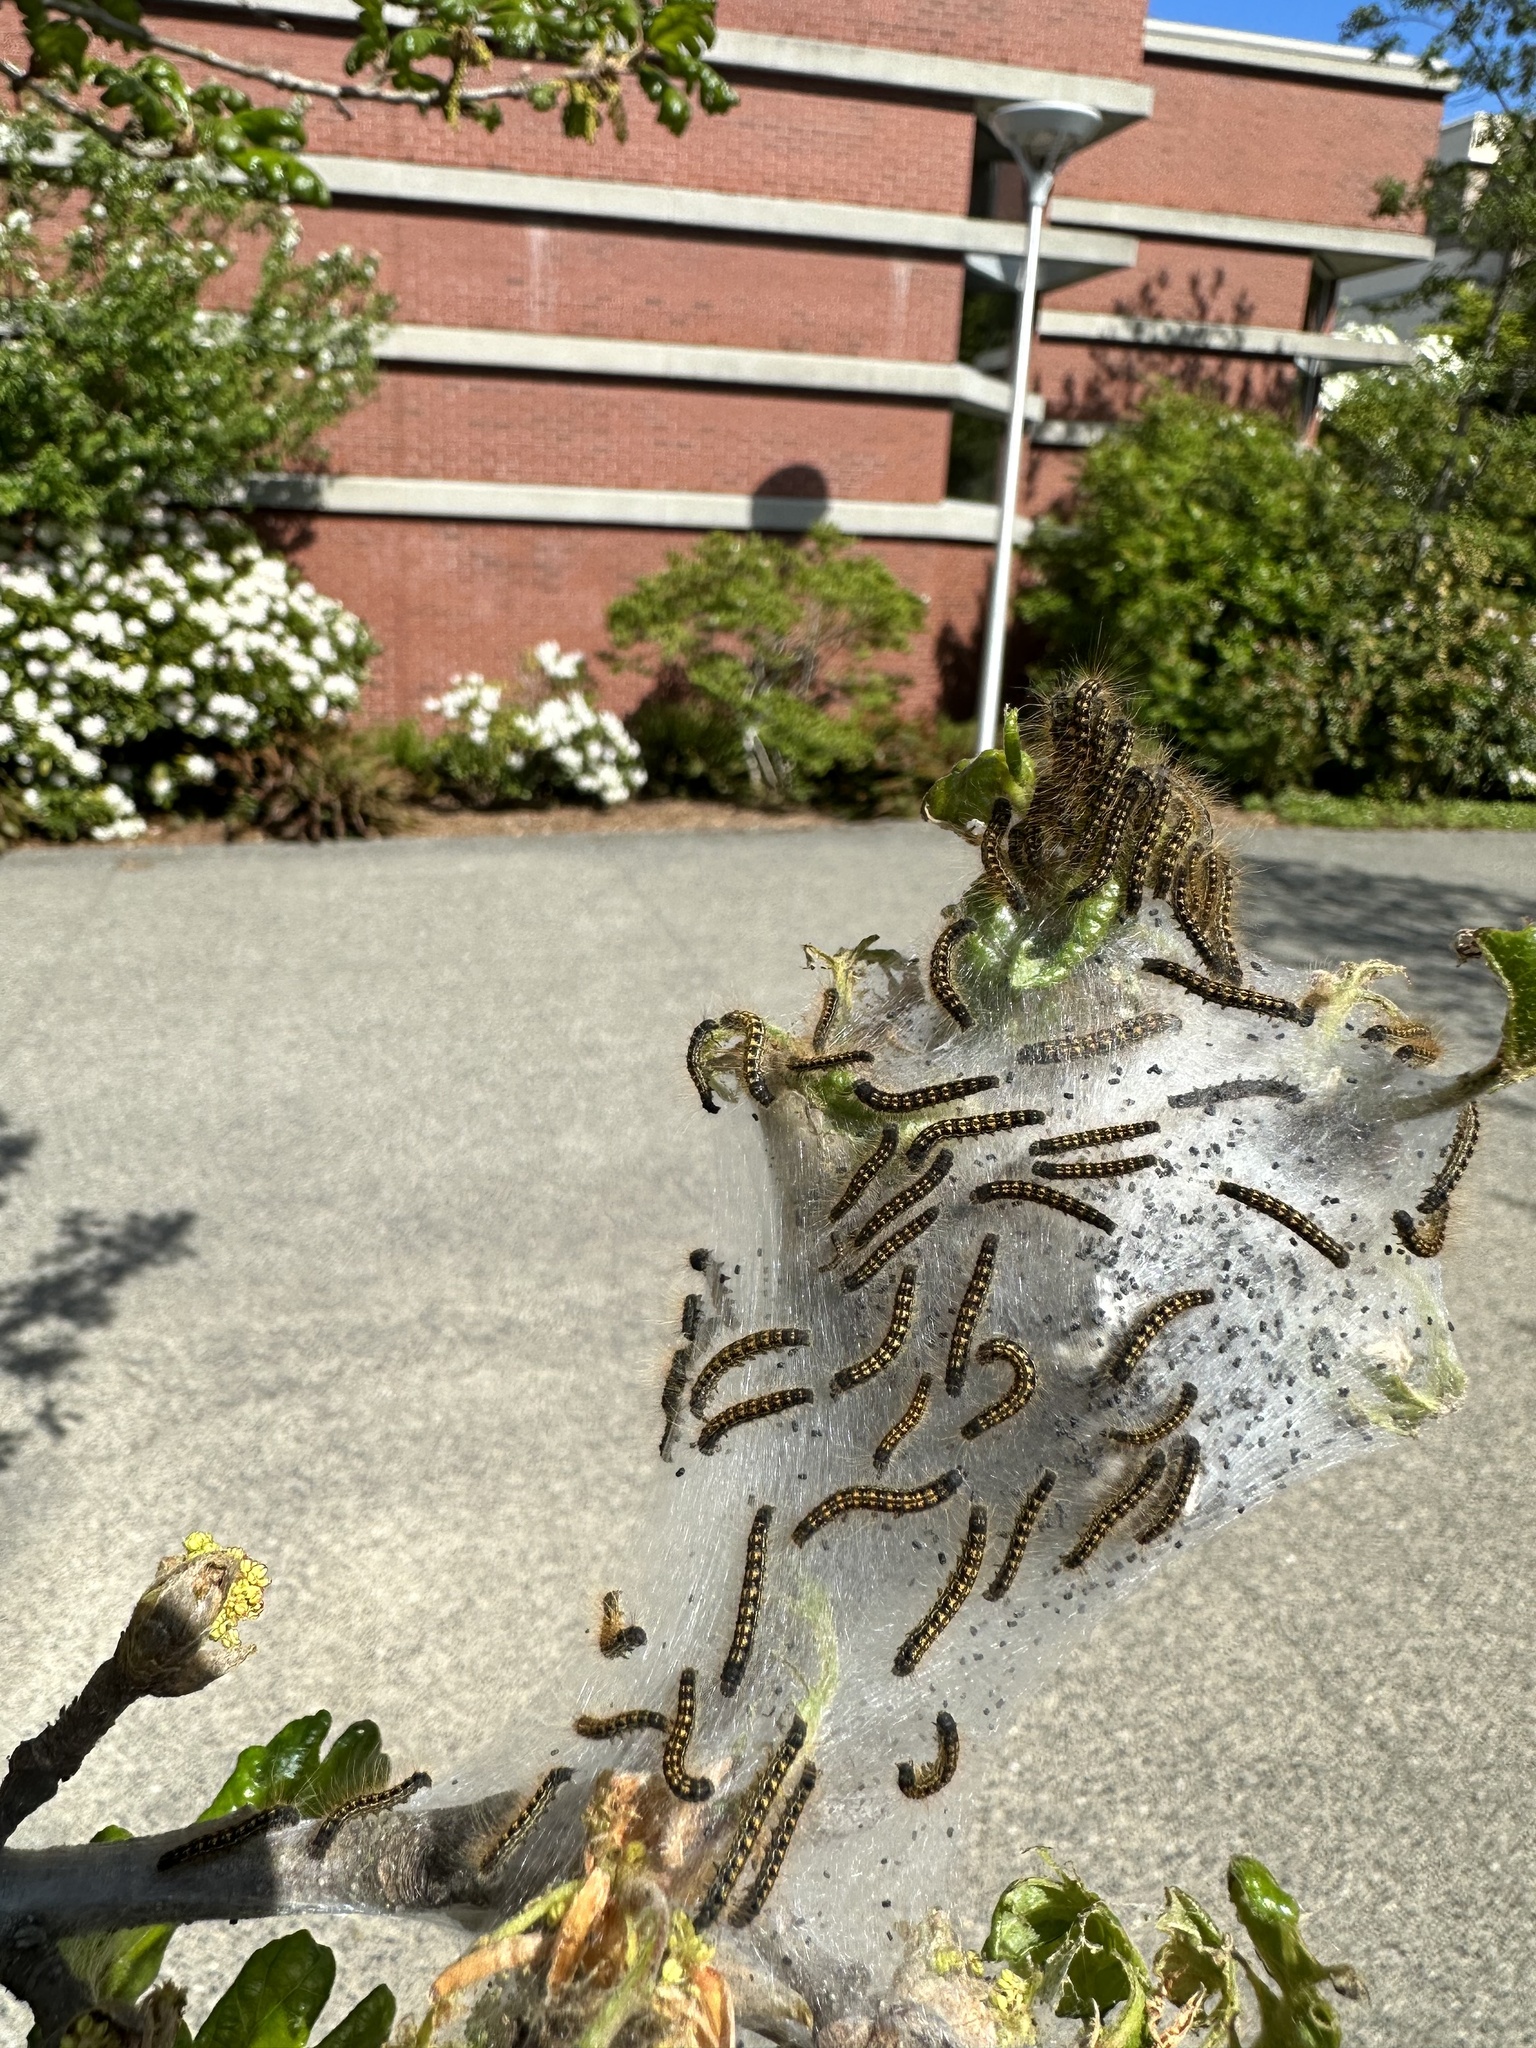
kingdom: Animalia
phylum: Arthropoda
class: Insecta
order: Lepidoptera
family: Lasiocampidae
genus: Malacosoma
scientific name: Malacosoma californica
